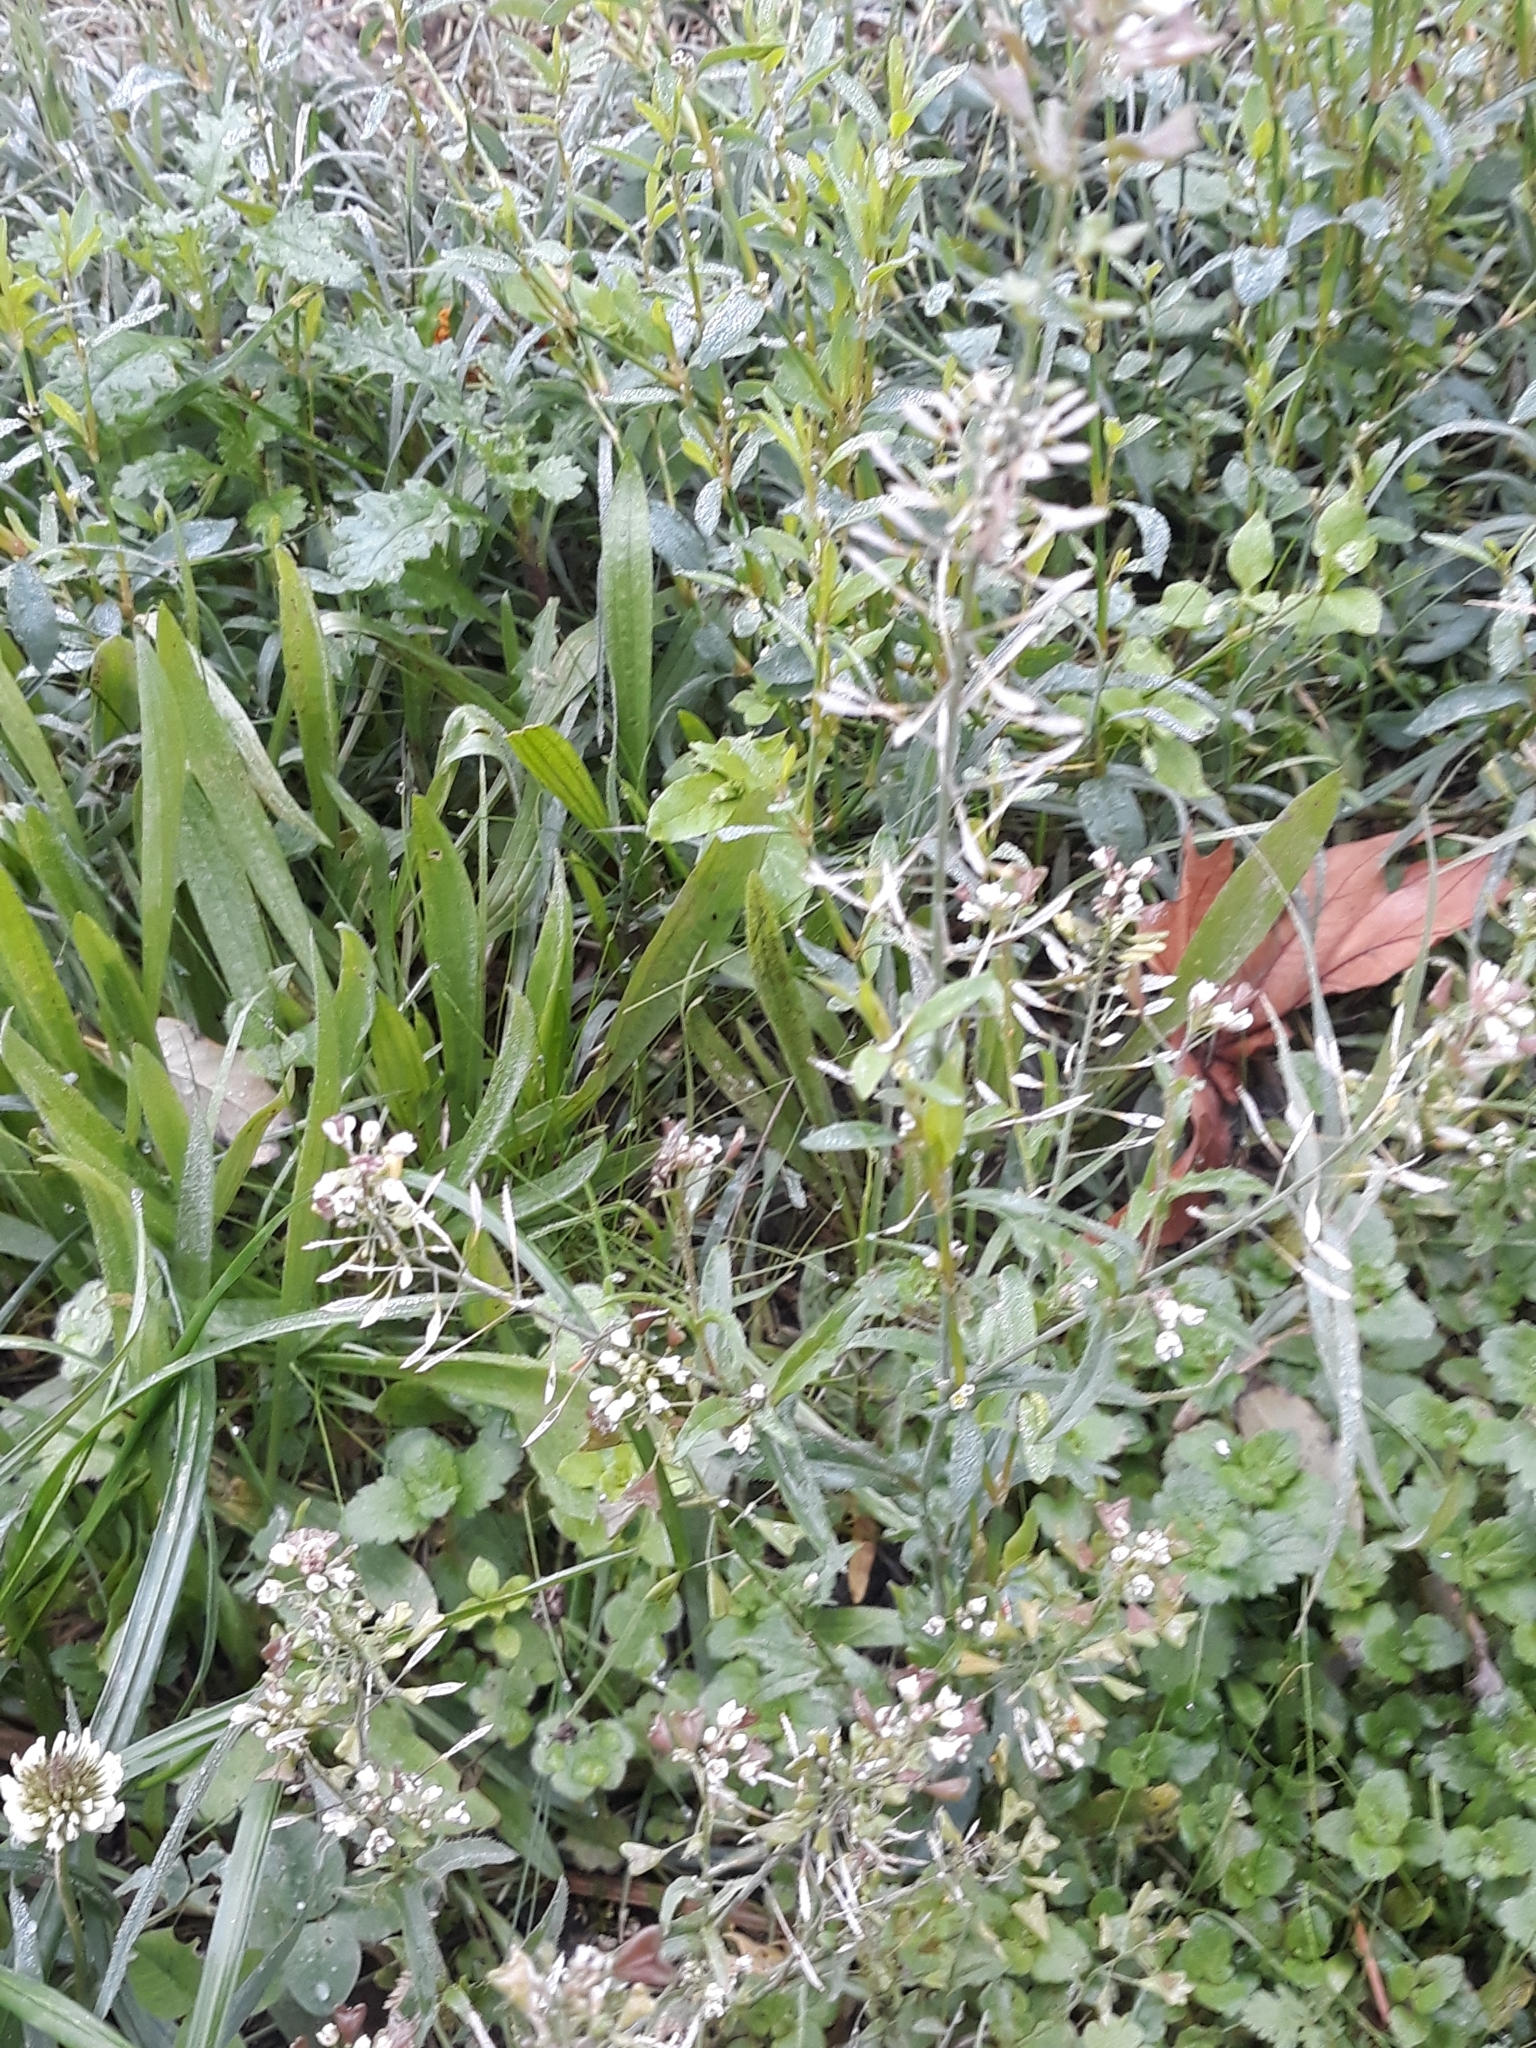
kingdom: Plantae
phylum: Tracheophyta
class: Magnoliopsida
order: Brassicales
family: Brassicaceae
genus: Capsella
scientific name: Capsella bursa-pastoris
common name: Shepherd's purse
